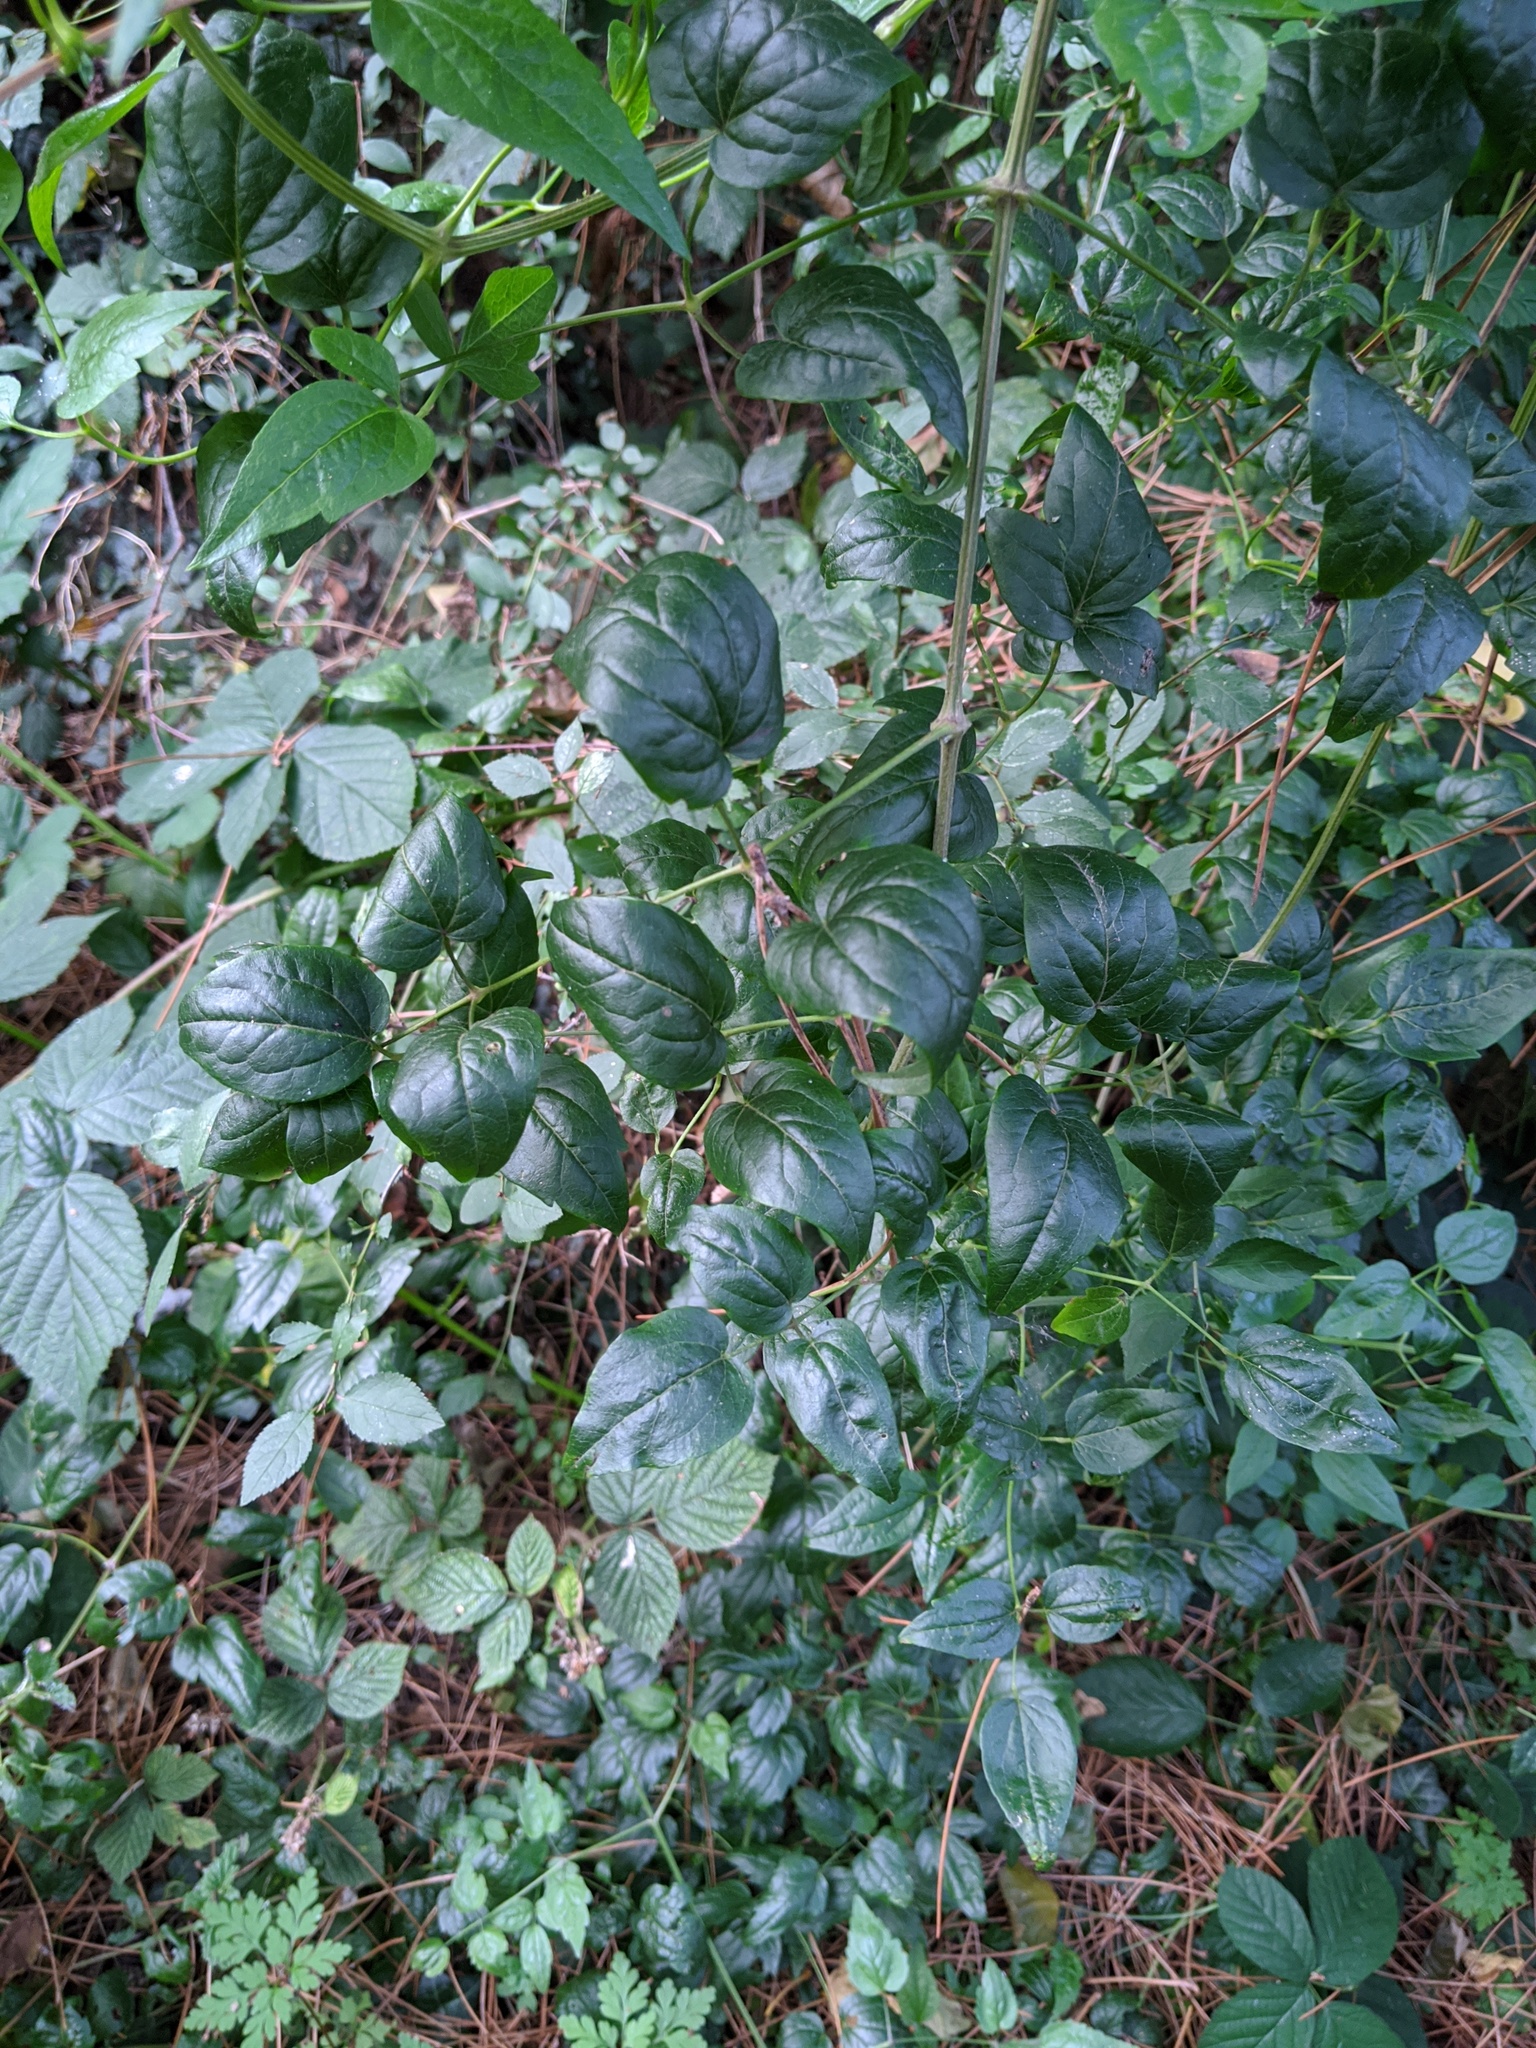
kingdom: Plantae
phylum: Tracheophyta
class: Magnoliopsida
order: Ranunculales
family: Ranunculaceae
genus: Clematis
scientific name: Clematis vitalba
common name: Evergreen clematis
